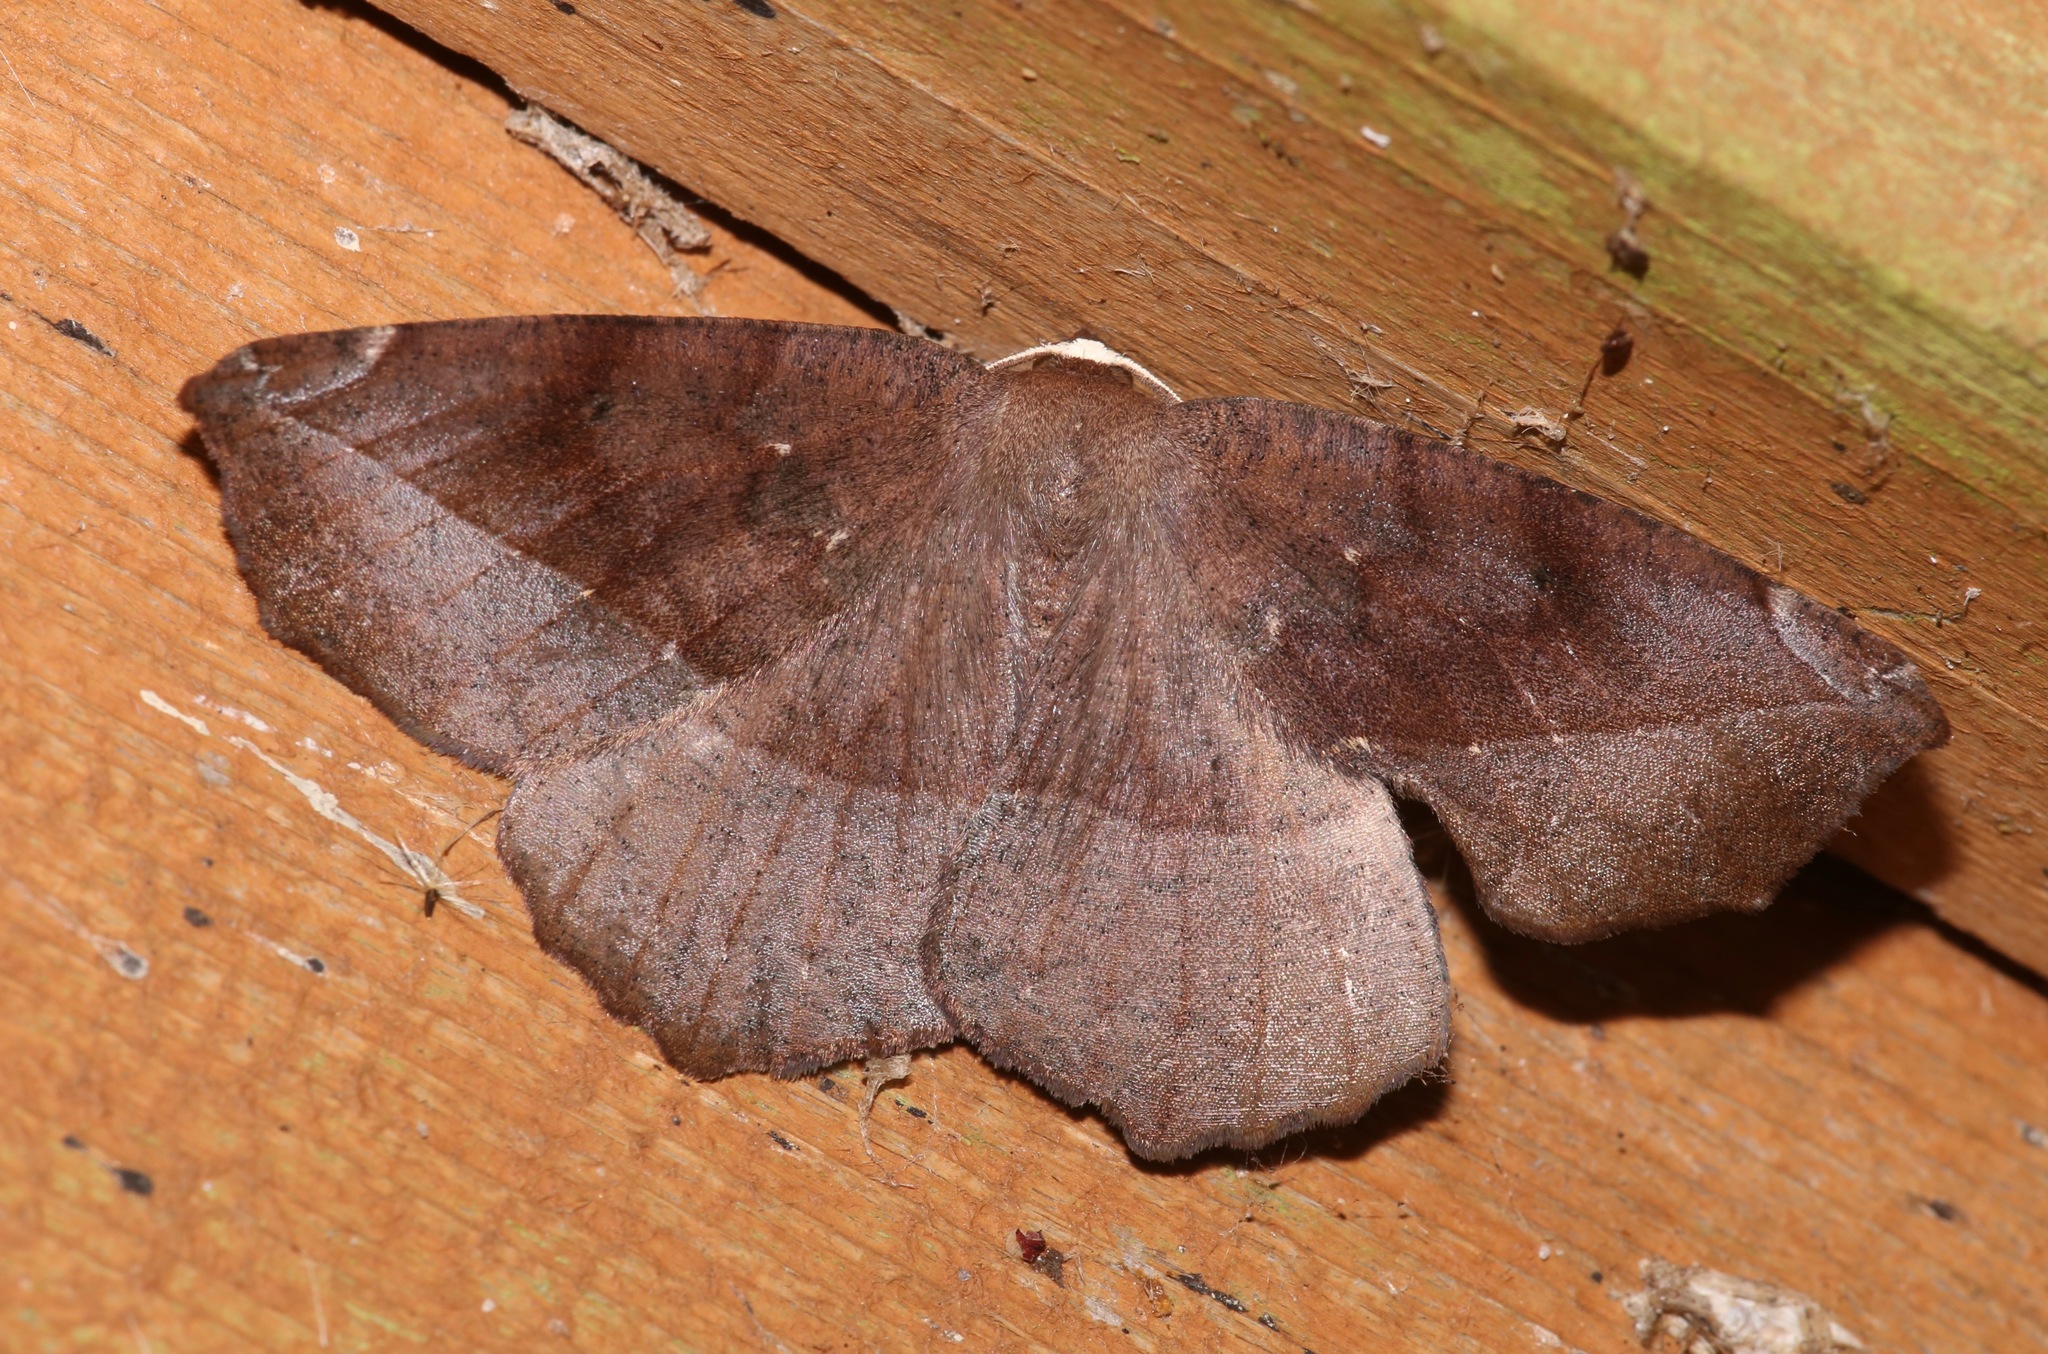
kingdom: Animalia
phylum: Arthropoda
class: Insecta
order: Lepidoptera
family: Geometridae
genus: Eutrapela
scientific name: Eutrapela clemataria
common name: Curved-toothed geometer
